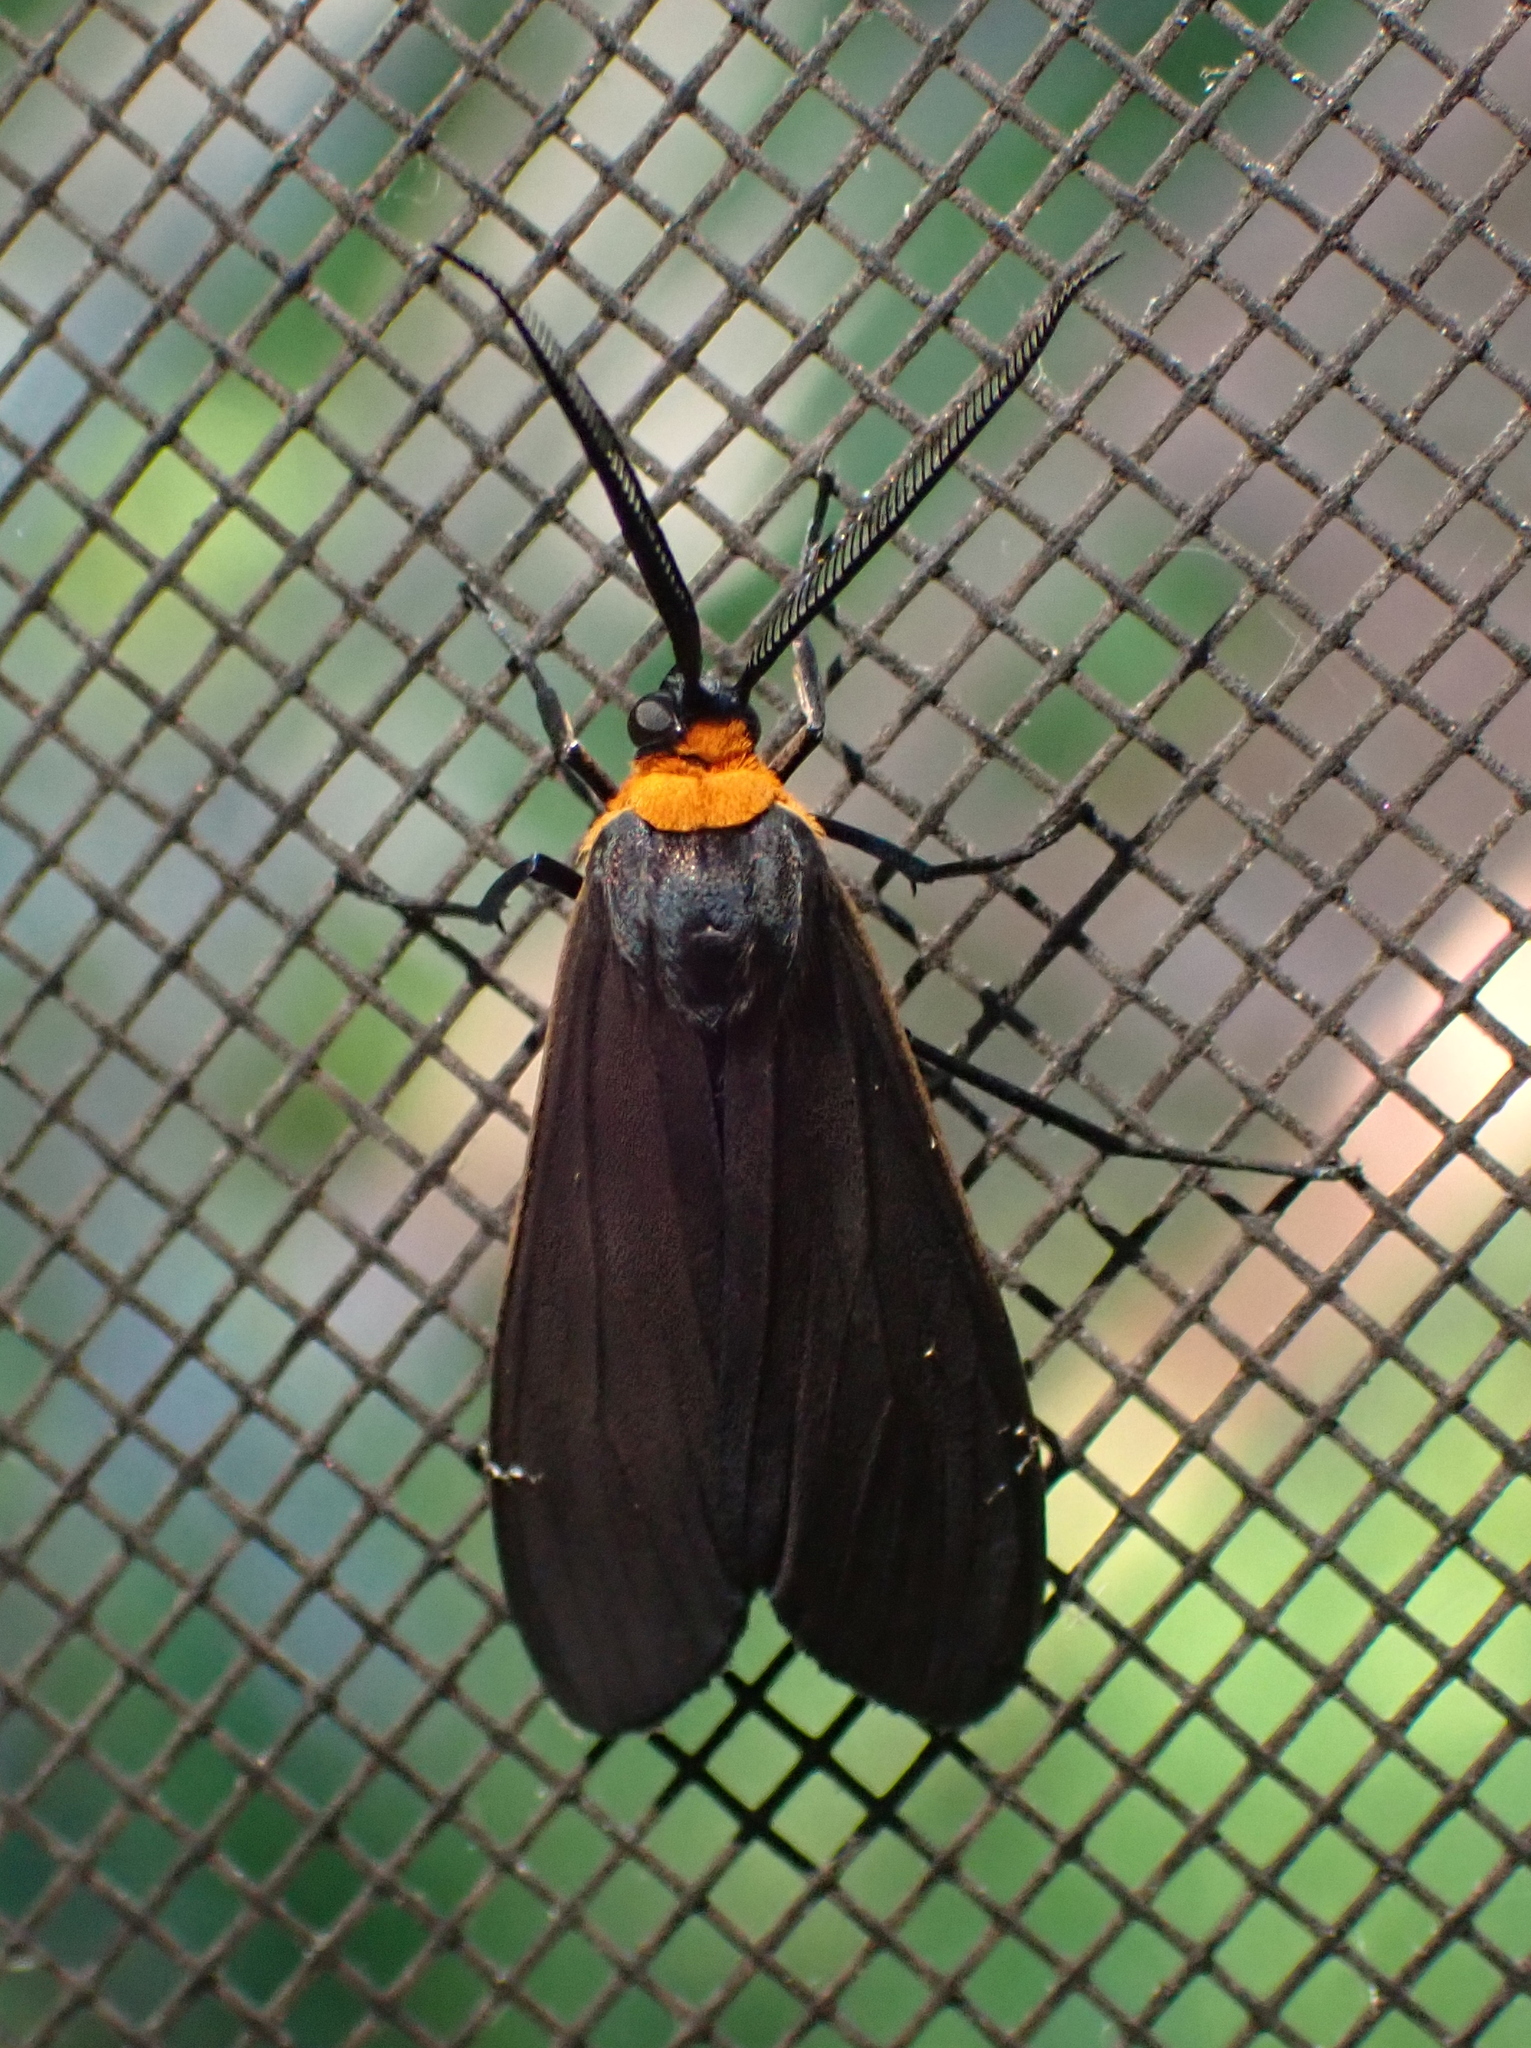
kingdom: Animalia
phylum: Arthropoda
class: Insecta
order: Lepidoptera
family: Erebidae
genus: Cisseps
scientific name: Cisseps fulvicollis
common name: Yellow-collared scape moth
